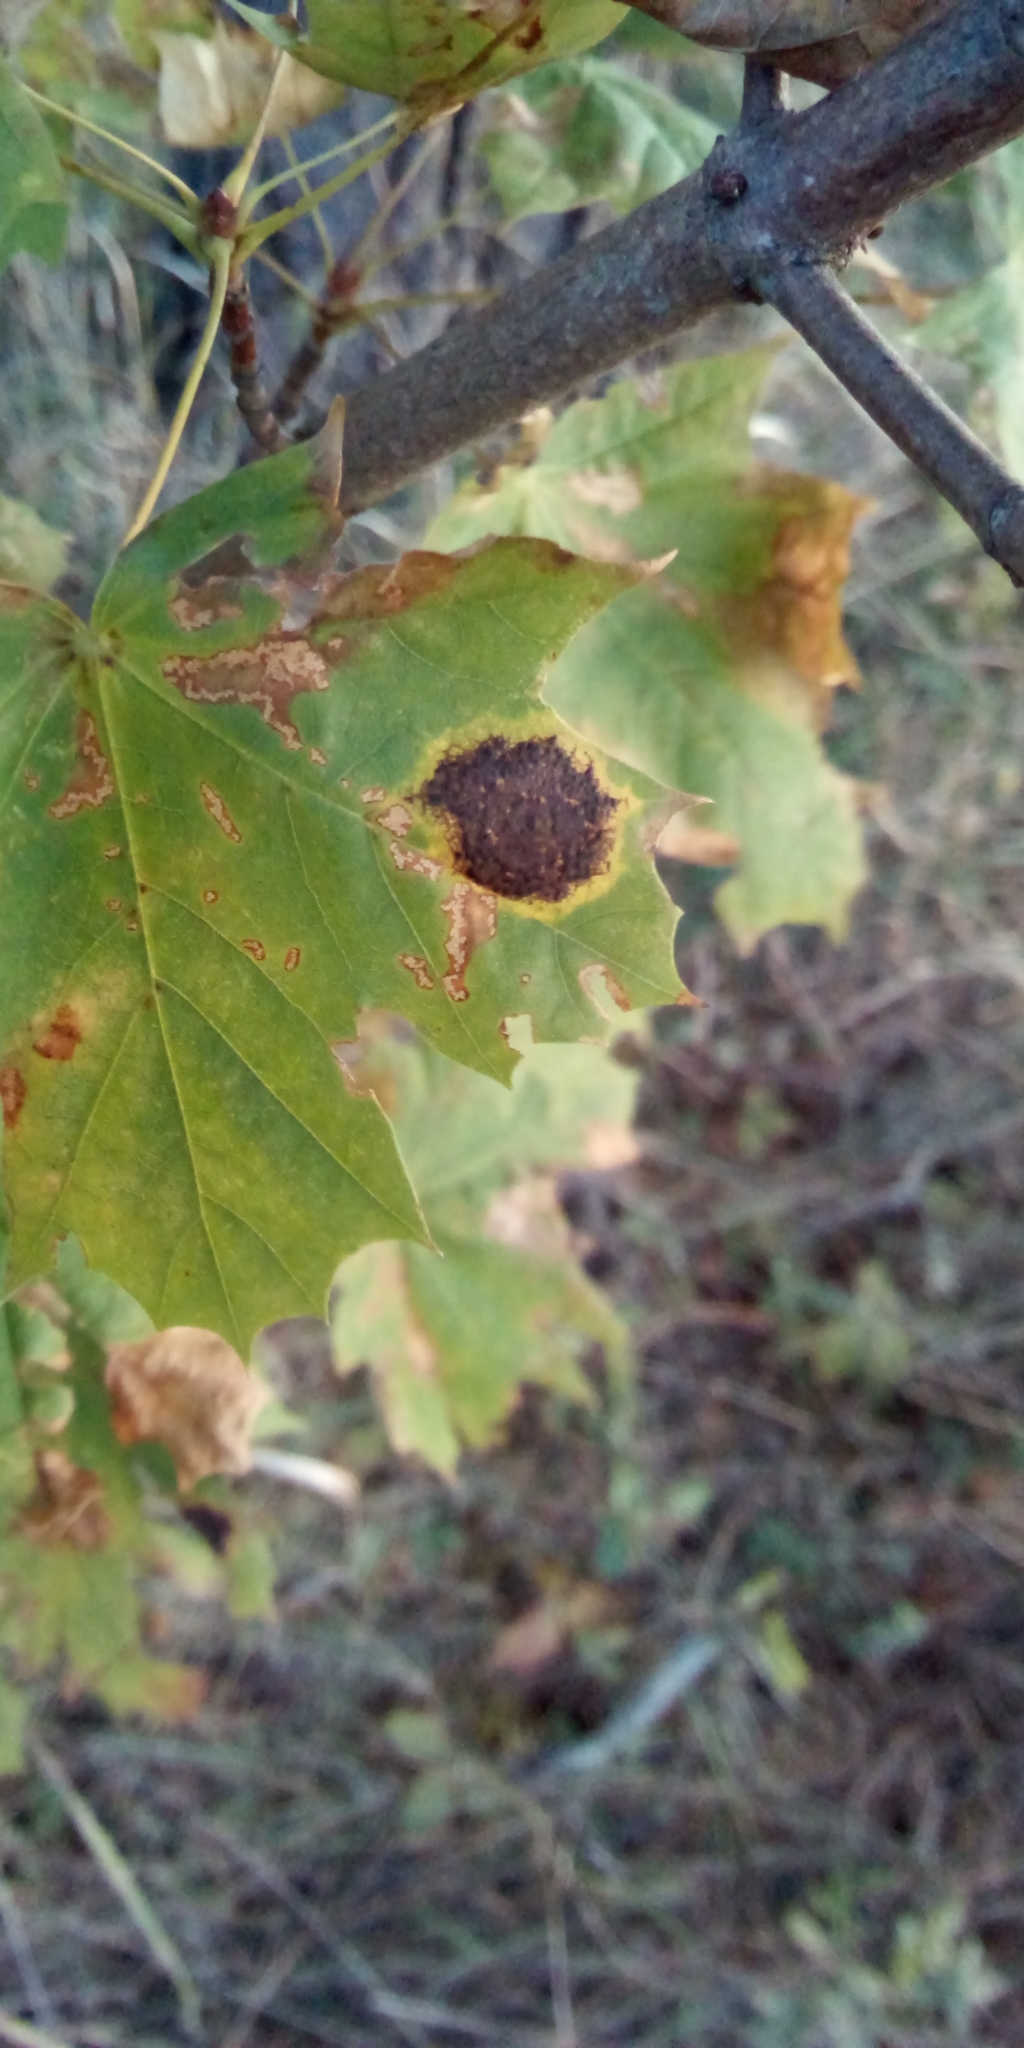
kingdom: Fungi
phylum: Ascomycota
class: Leotiomycetes
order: Rhytismatales
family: Rhytismataceae
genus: Rhytisma
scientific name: Rhytisma acerinum
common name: European tar spot
